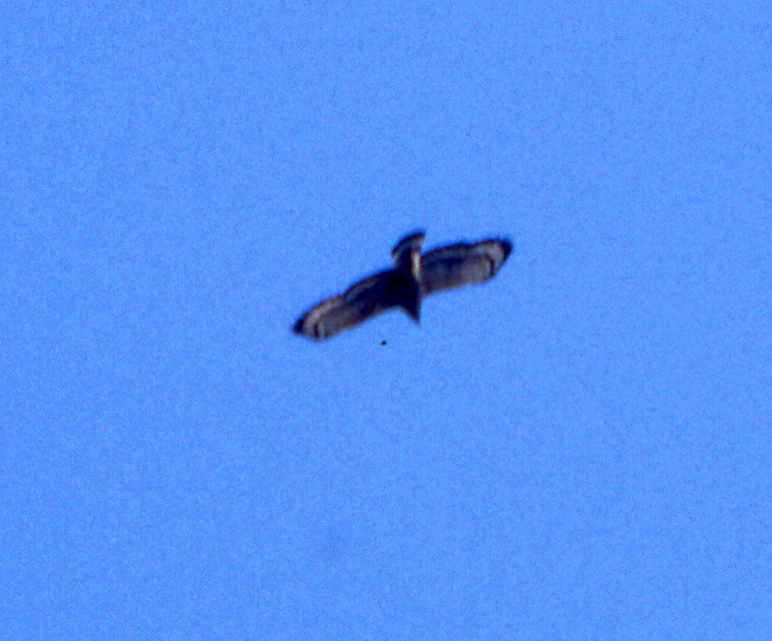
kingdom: Animalia
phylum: Chordata
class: Aves
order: Accipitriformes
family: Accipitridae
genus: Spilornis
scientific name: Spilornis cheela
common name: Crested serpent eagle
